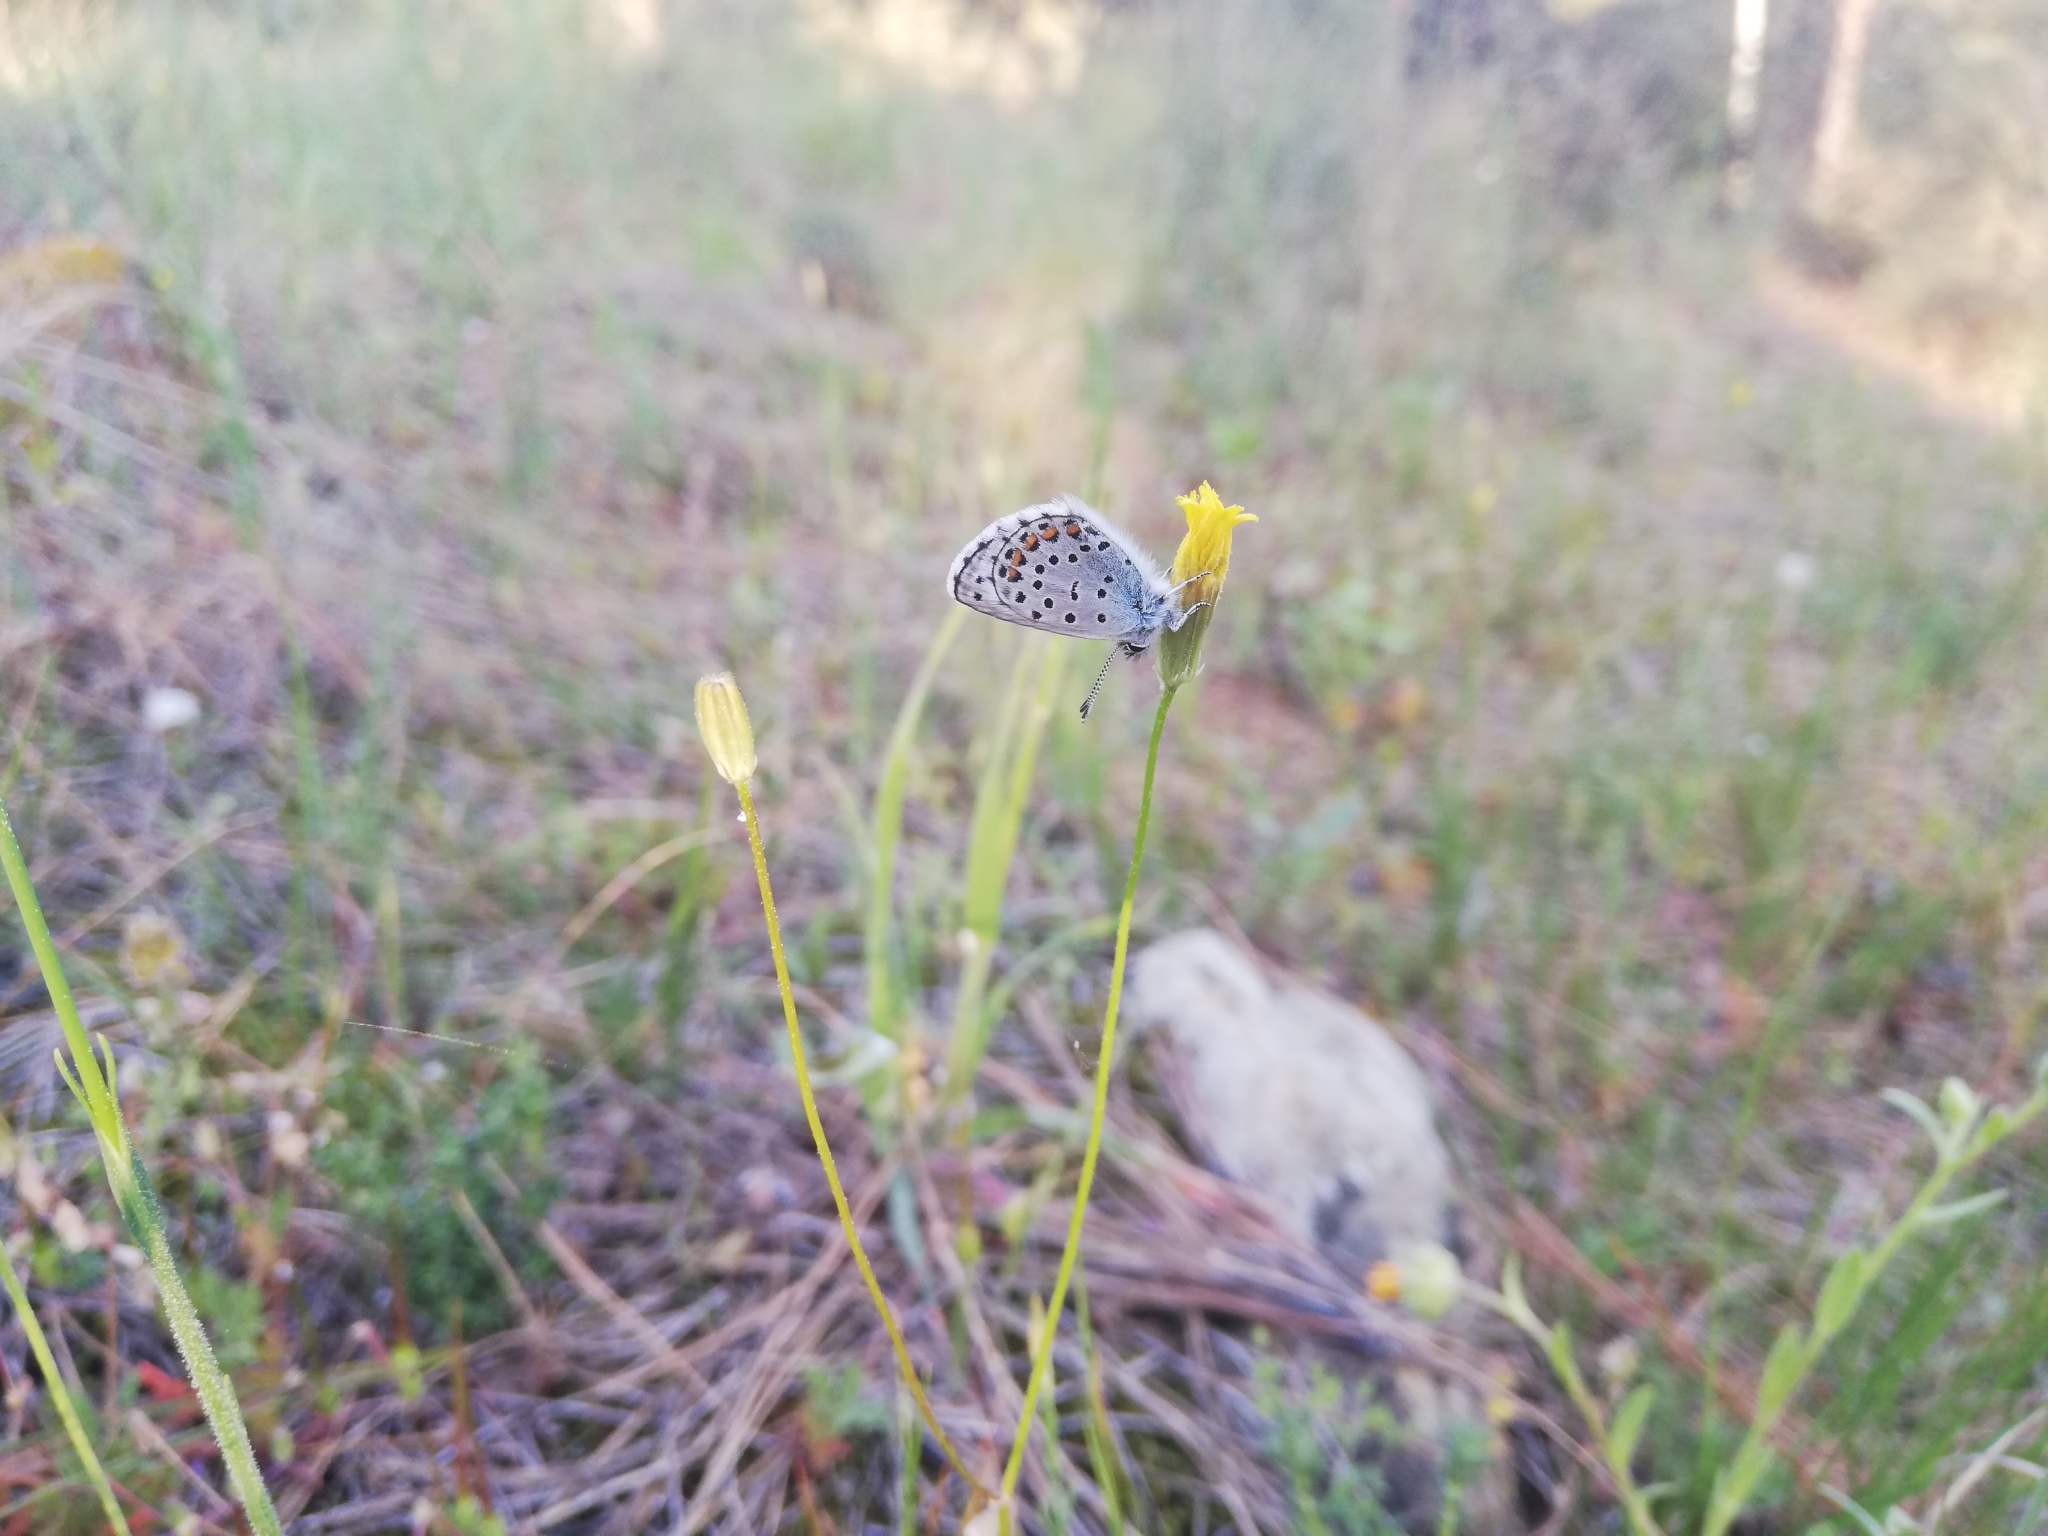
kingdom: Animalia
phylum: Arthropoda
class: Insecta
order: Lepidoptera
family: Lycaenidae
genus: Pseudophilotes
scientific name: Pseudophilotes baton
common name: Baton blue
